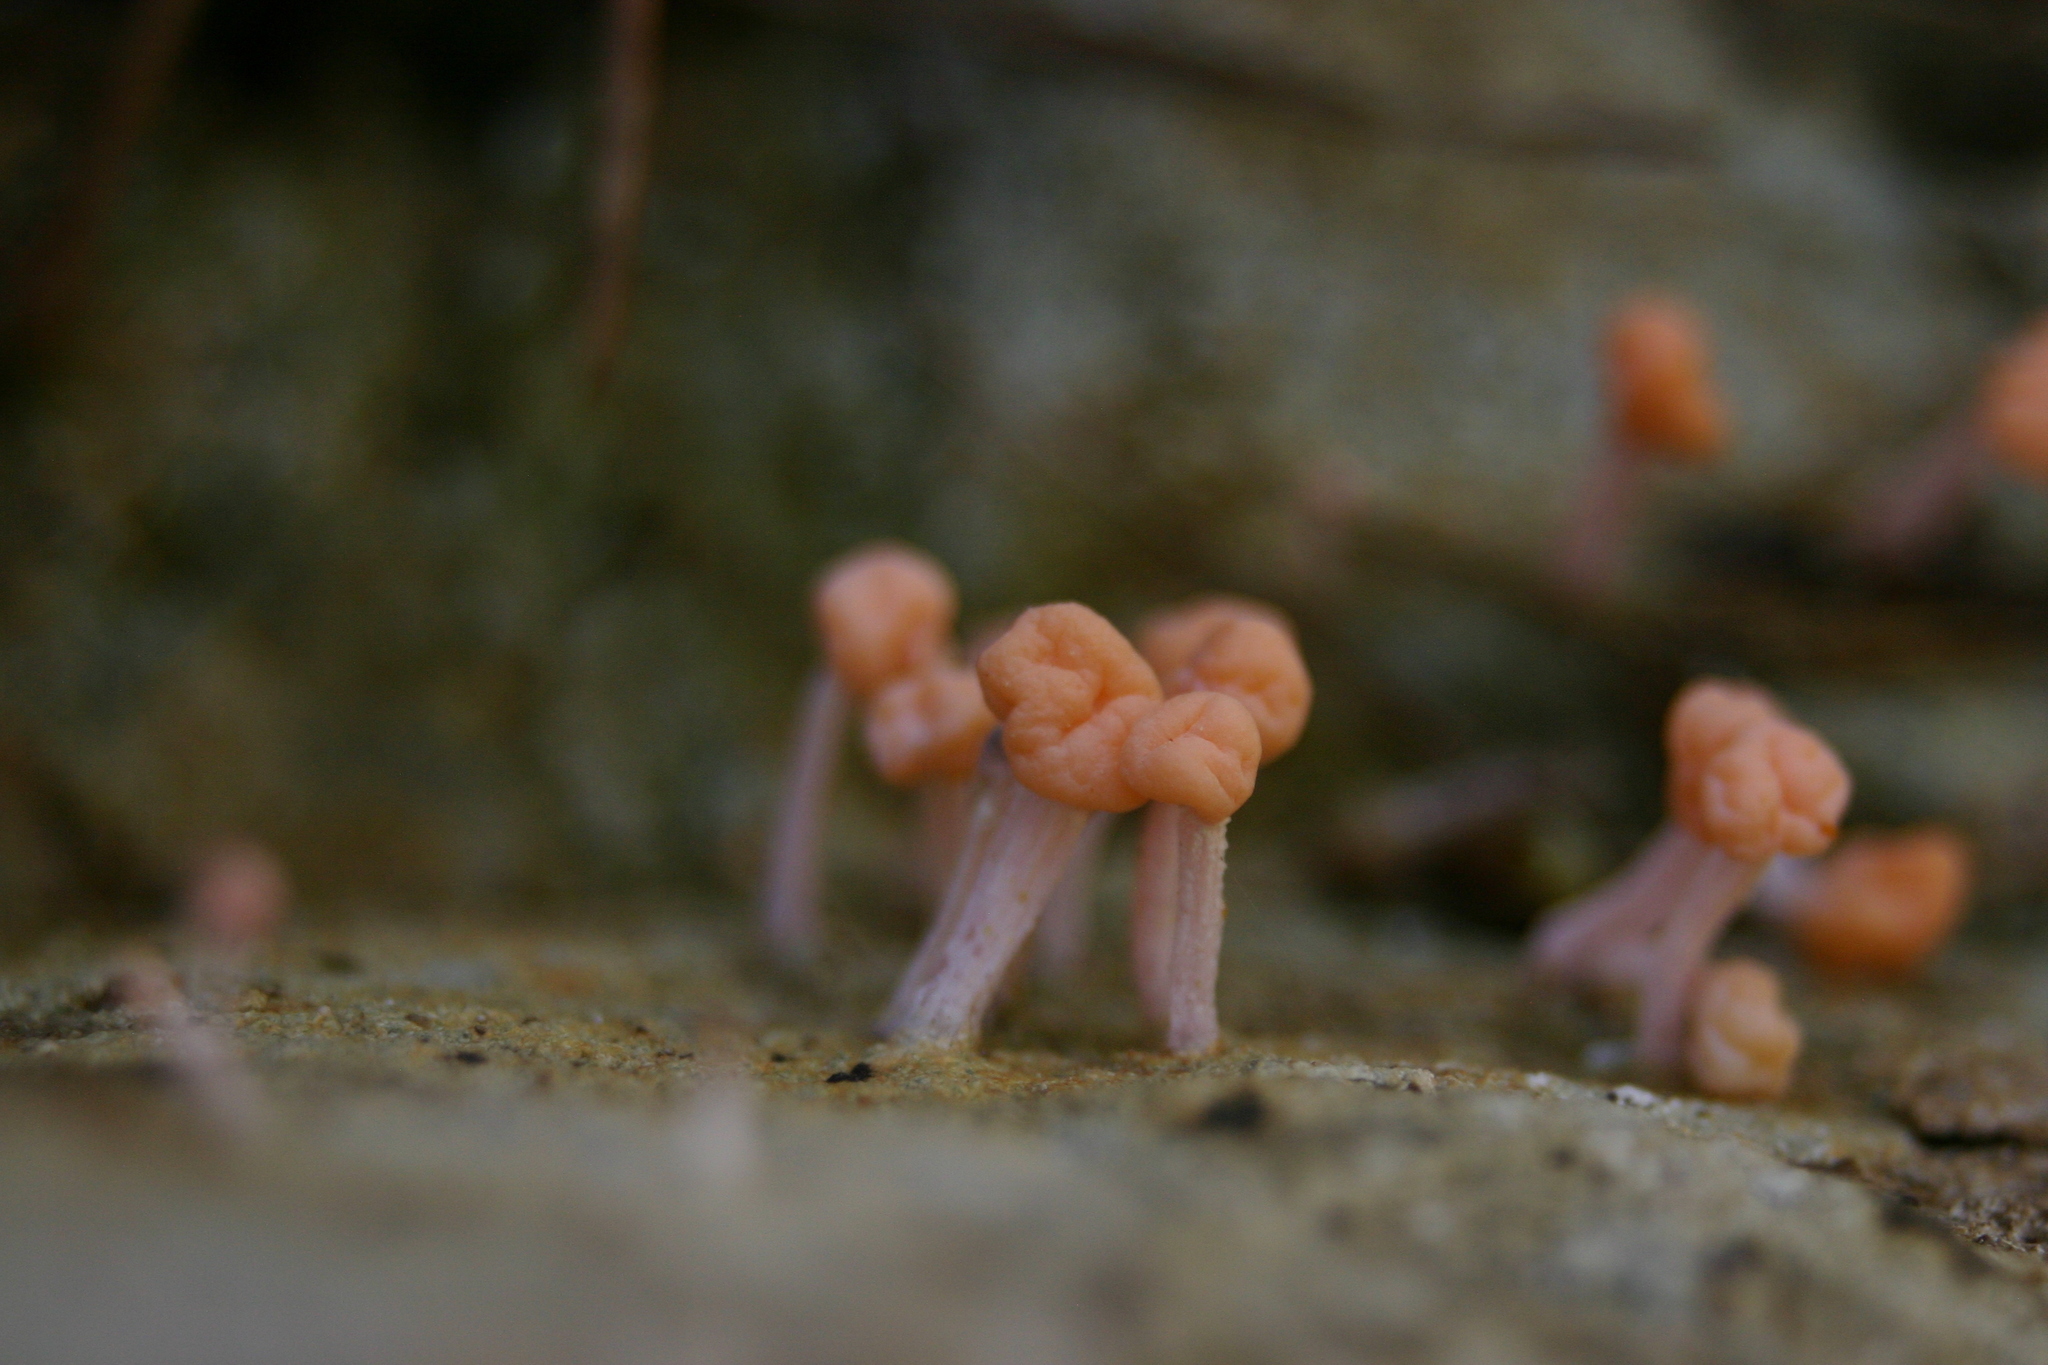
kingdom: Fungi
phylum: Ascomycota
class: Lecanoromycetes
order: Pertusariales
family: Icmadophilaceae
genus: Dibaeis
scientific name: Dibaeis arcuata
